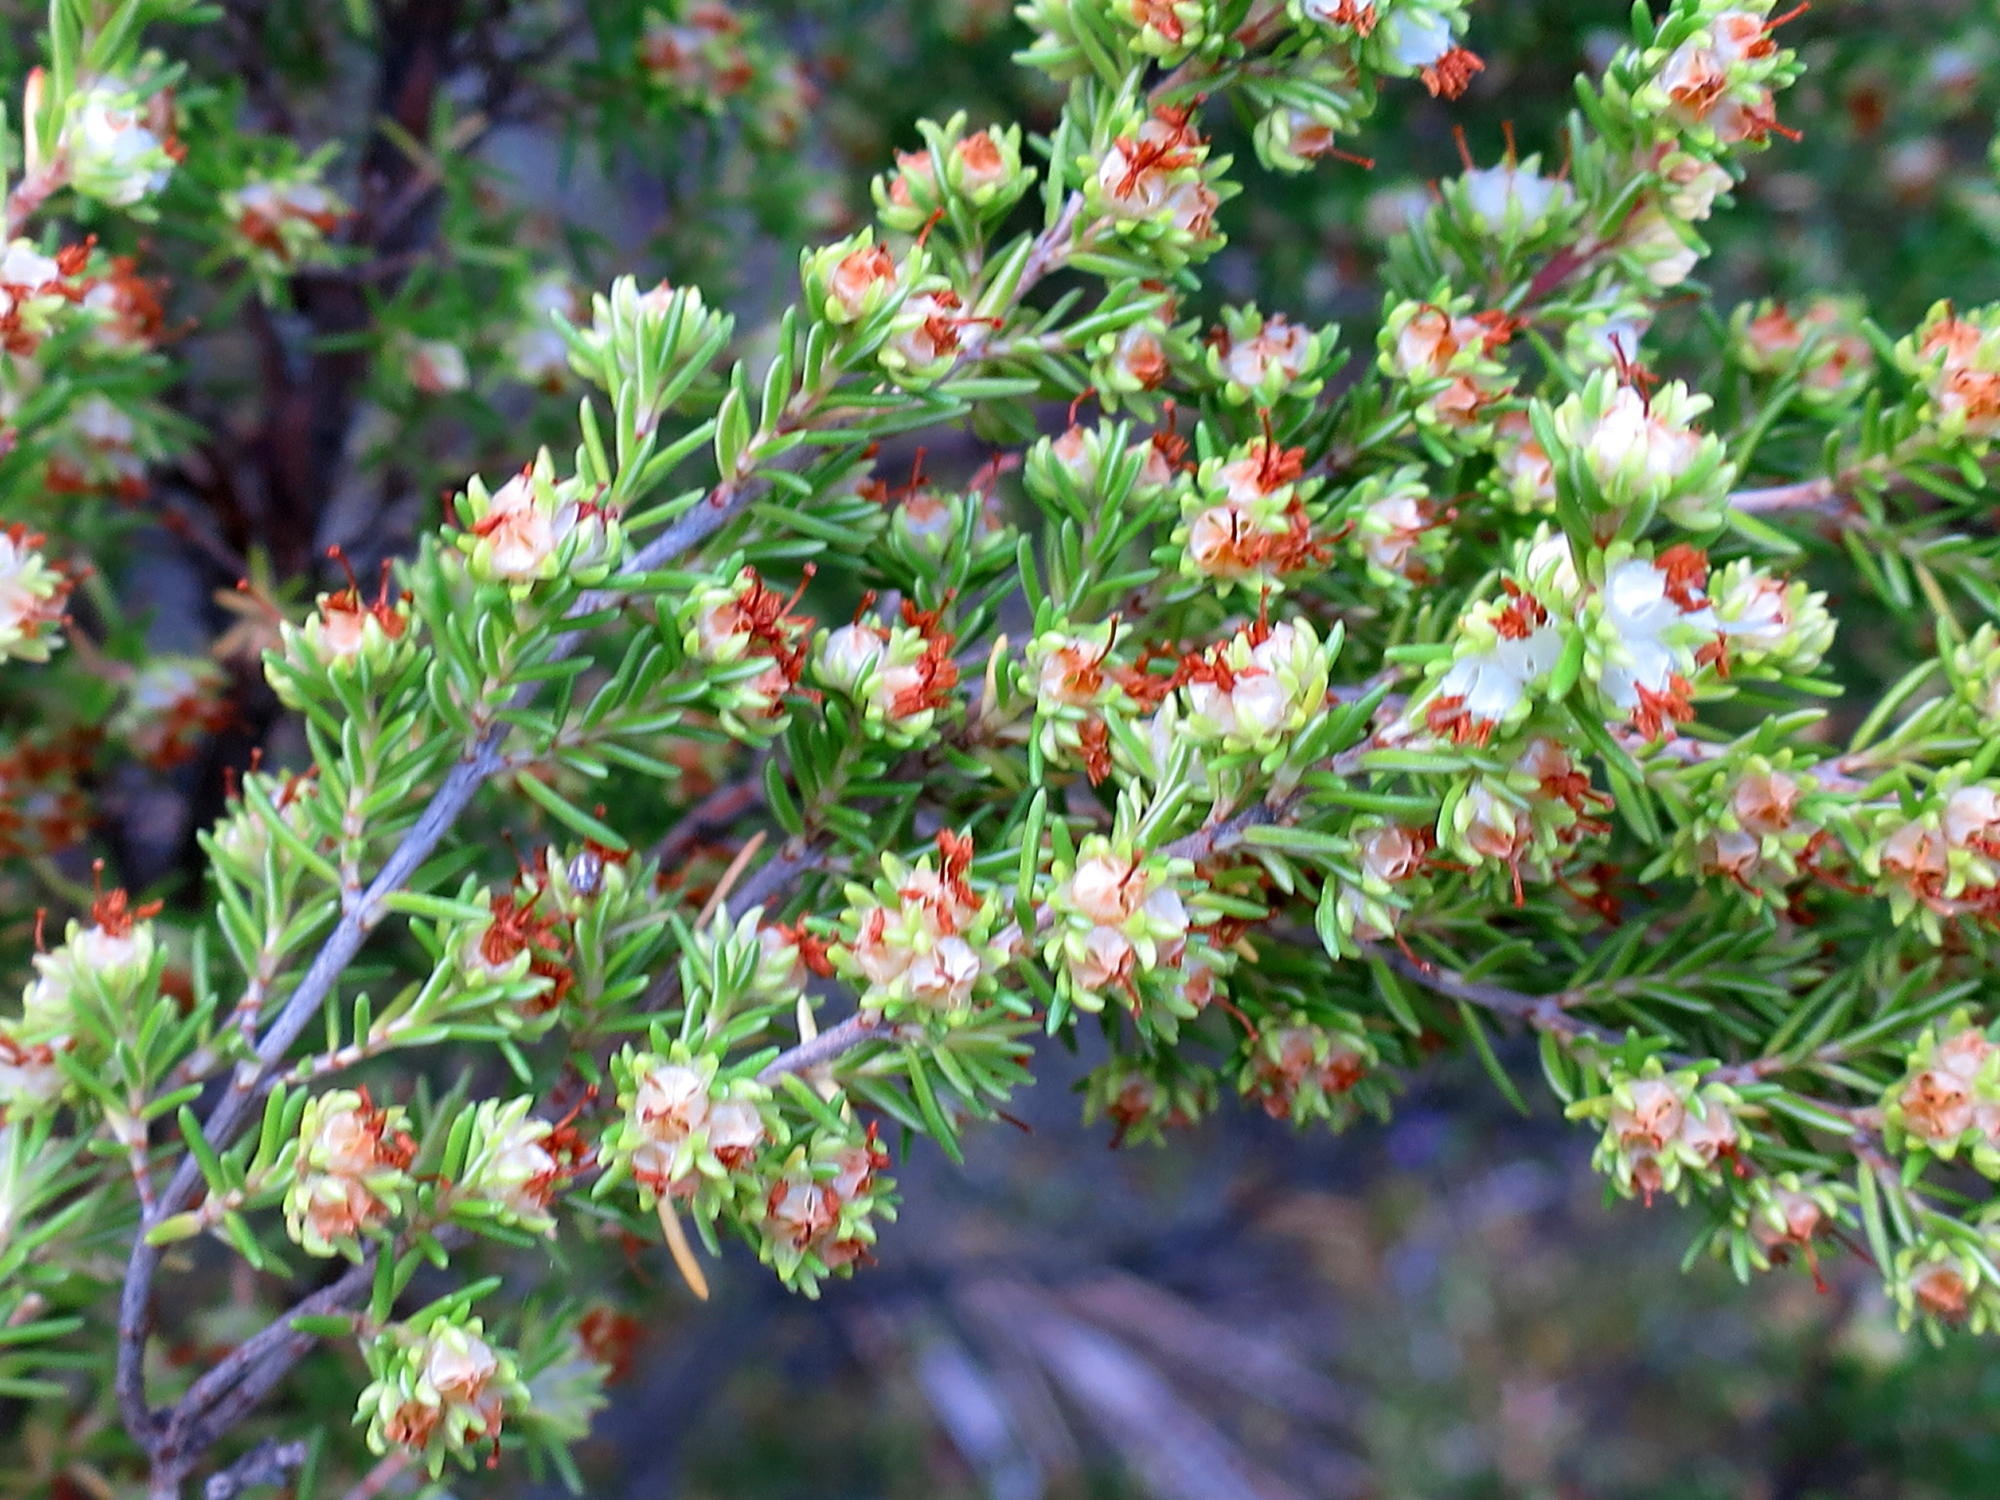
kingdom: Plantae
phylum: Tracheophyta
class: Magnoliopsida
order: Ericales
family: Ericaceae
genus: Erica
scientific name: Erica glumiflora
